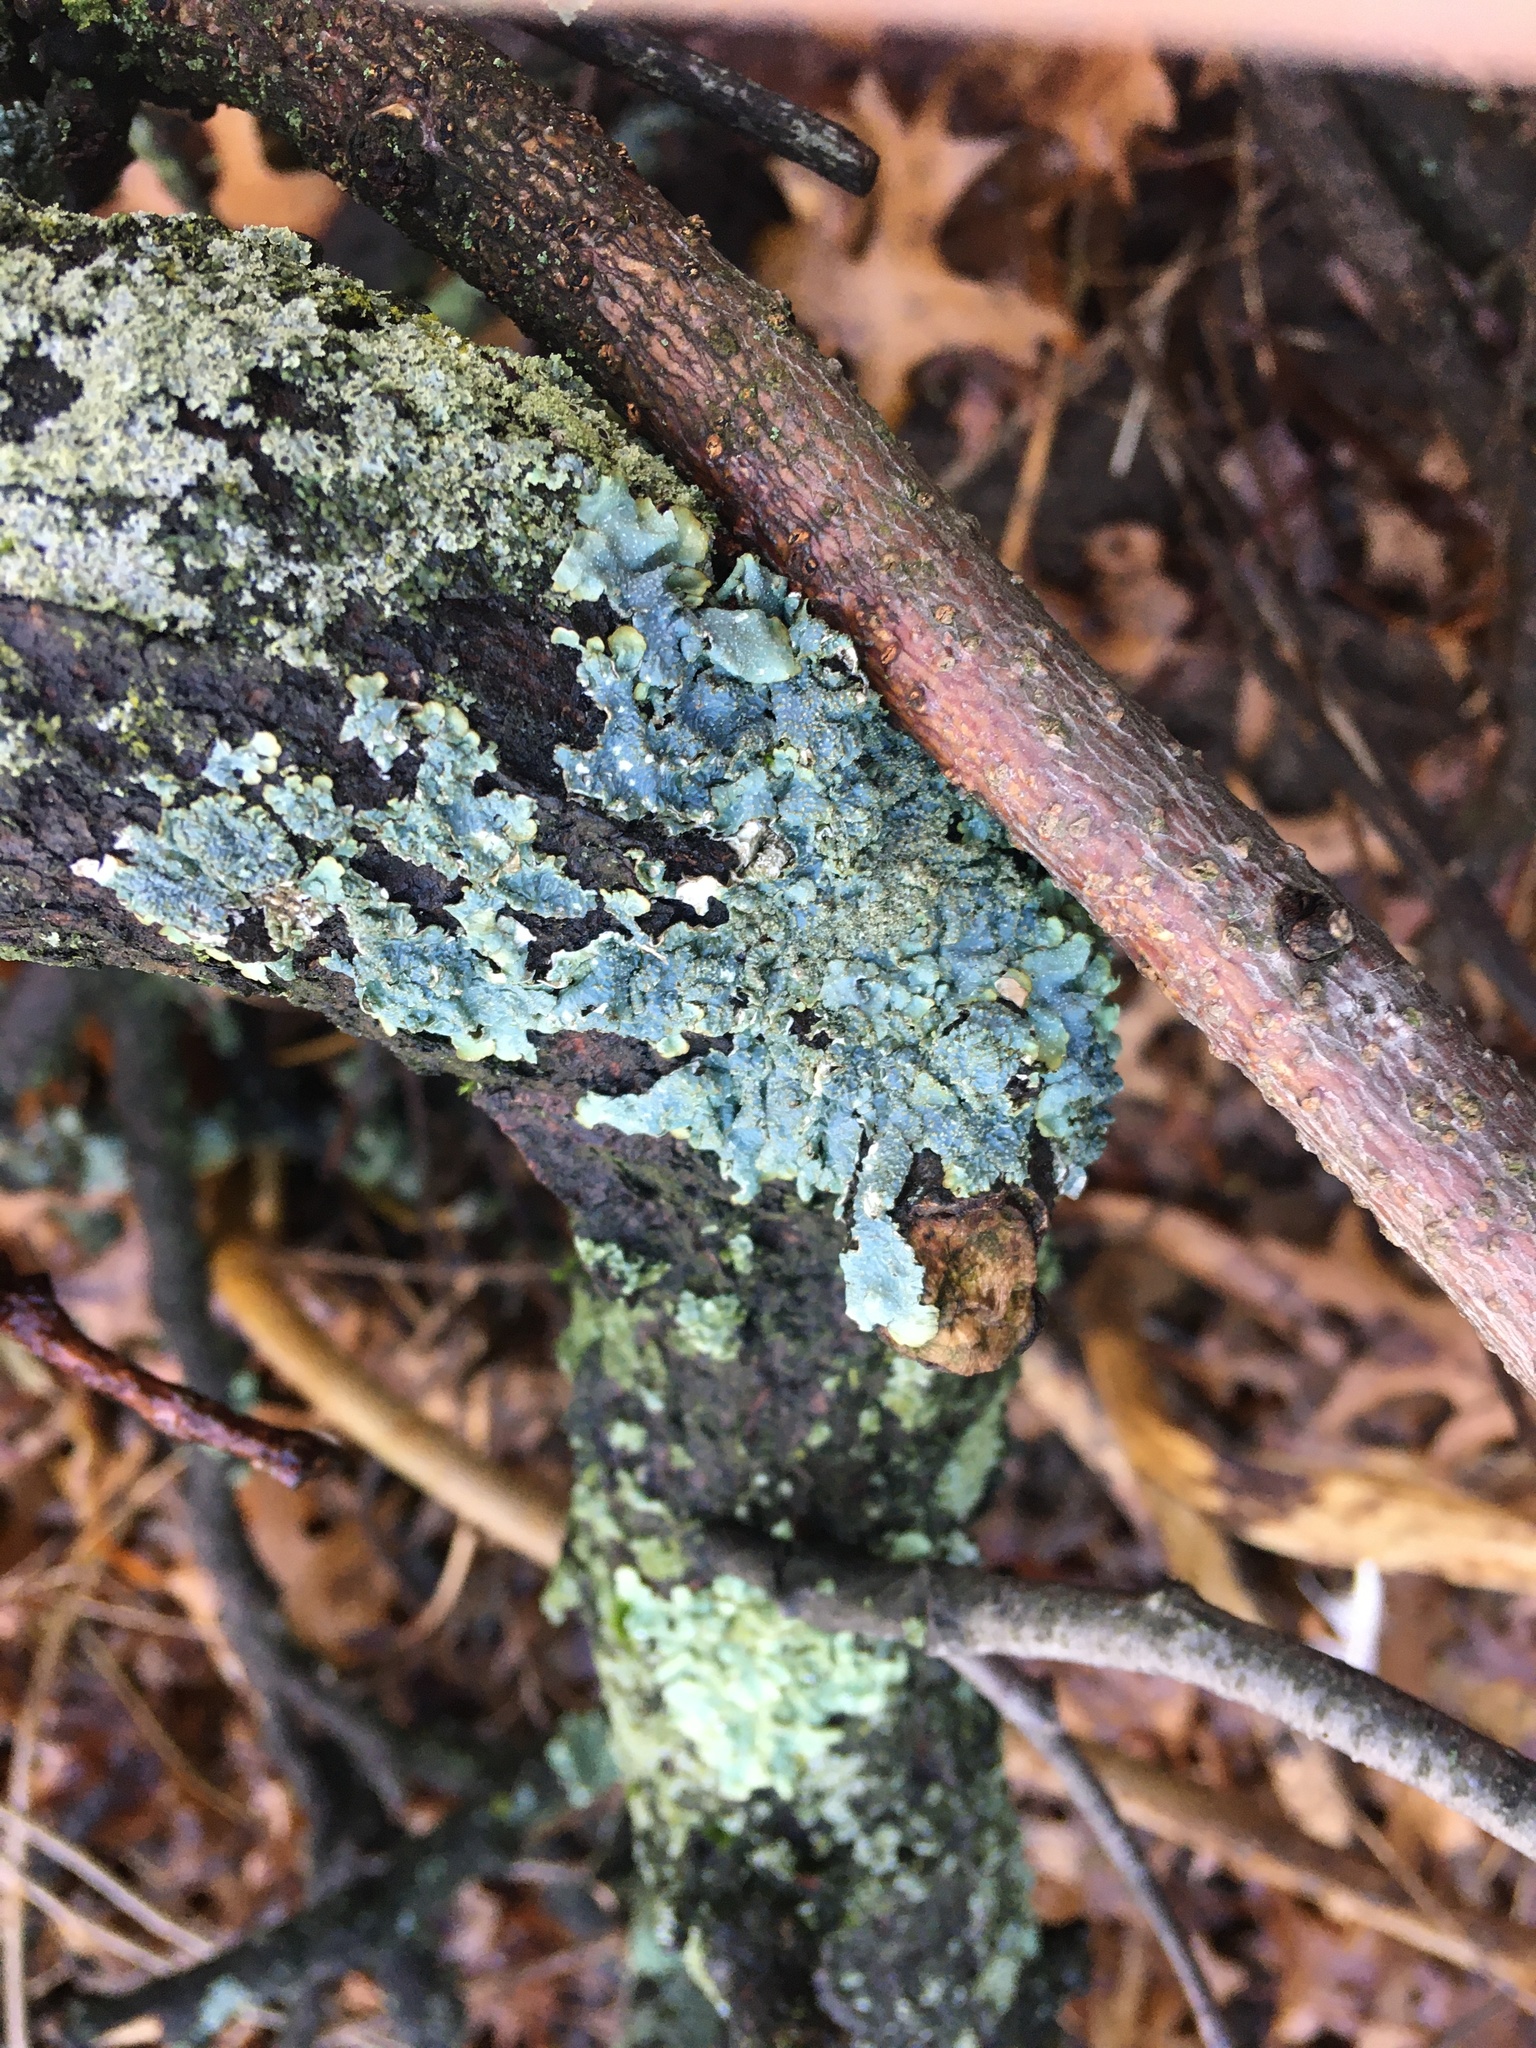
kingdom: Fungi
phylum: Ascomycota
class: Lecanoromycetes
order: Lecanorales
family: Parmeliaceae
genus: Punctelia
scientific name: Punctelia rudecta
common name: Rough speckled shield lichen
